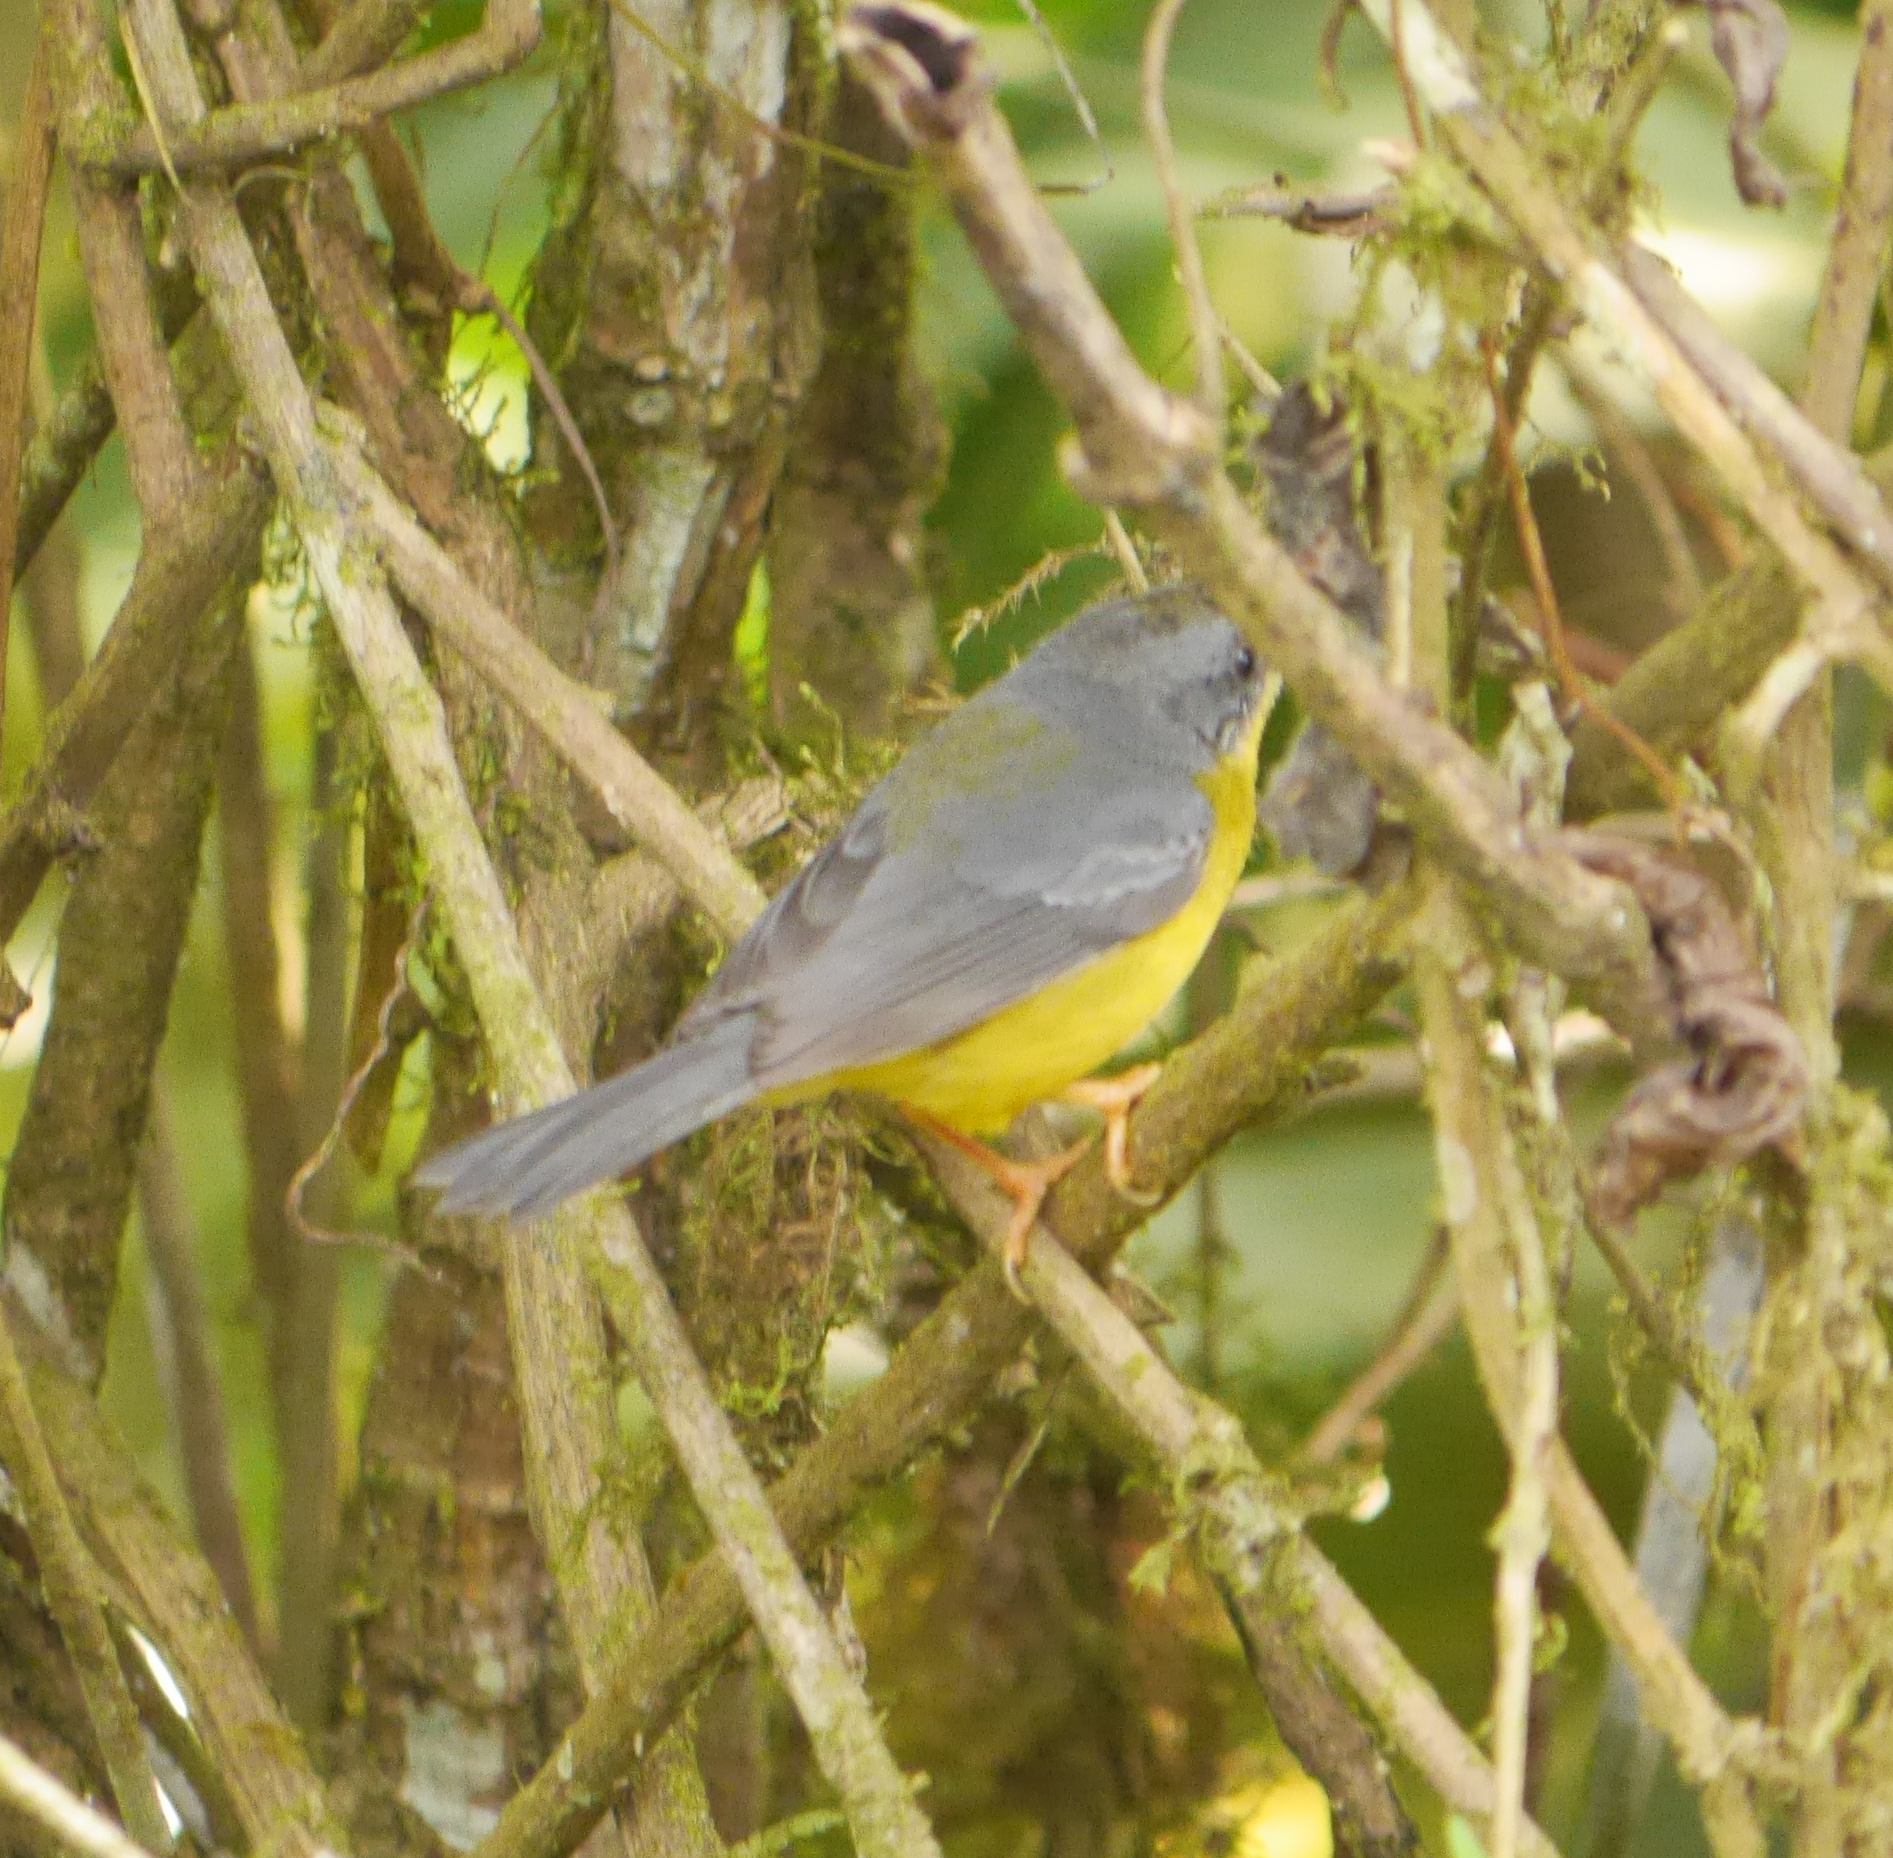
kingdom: Animalia
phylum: Chordata
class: Aves
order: Passeriformes
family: Parulidae
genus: Myiothlypis
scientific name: Myiothlypis fraseri
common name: Grey-and-gold warbler
